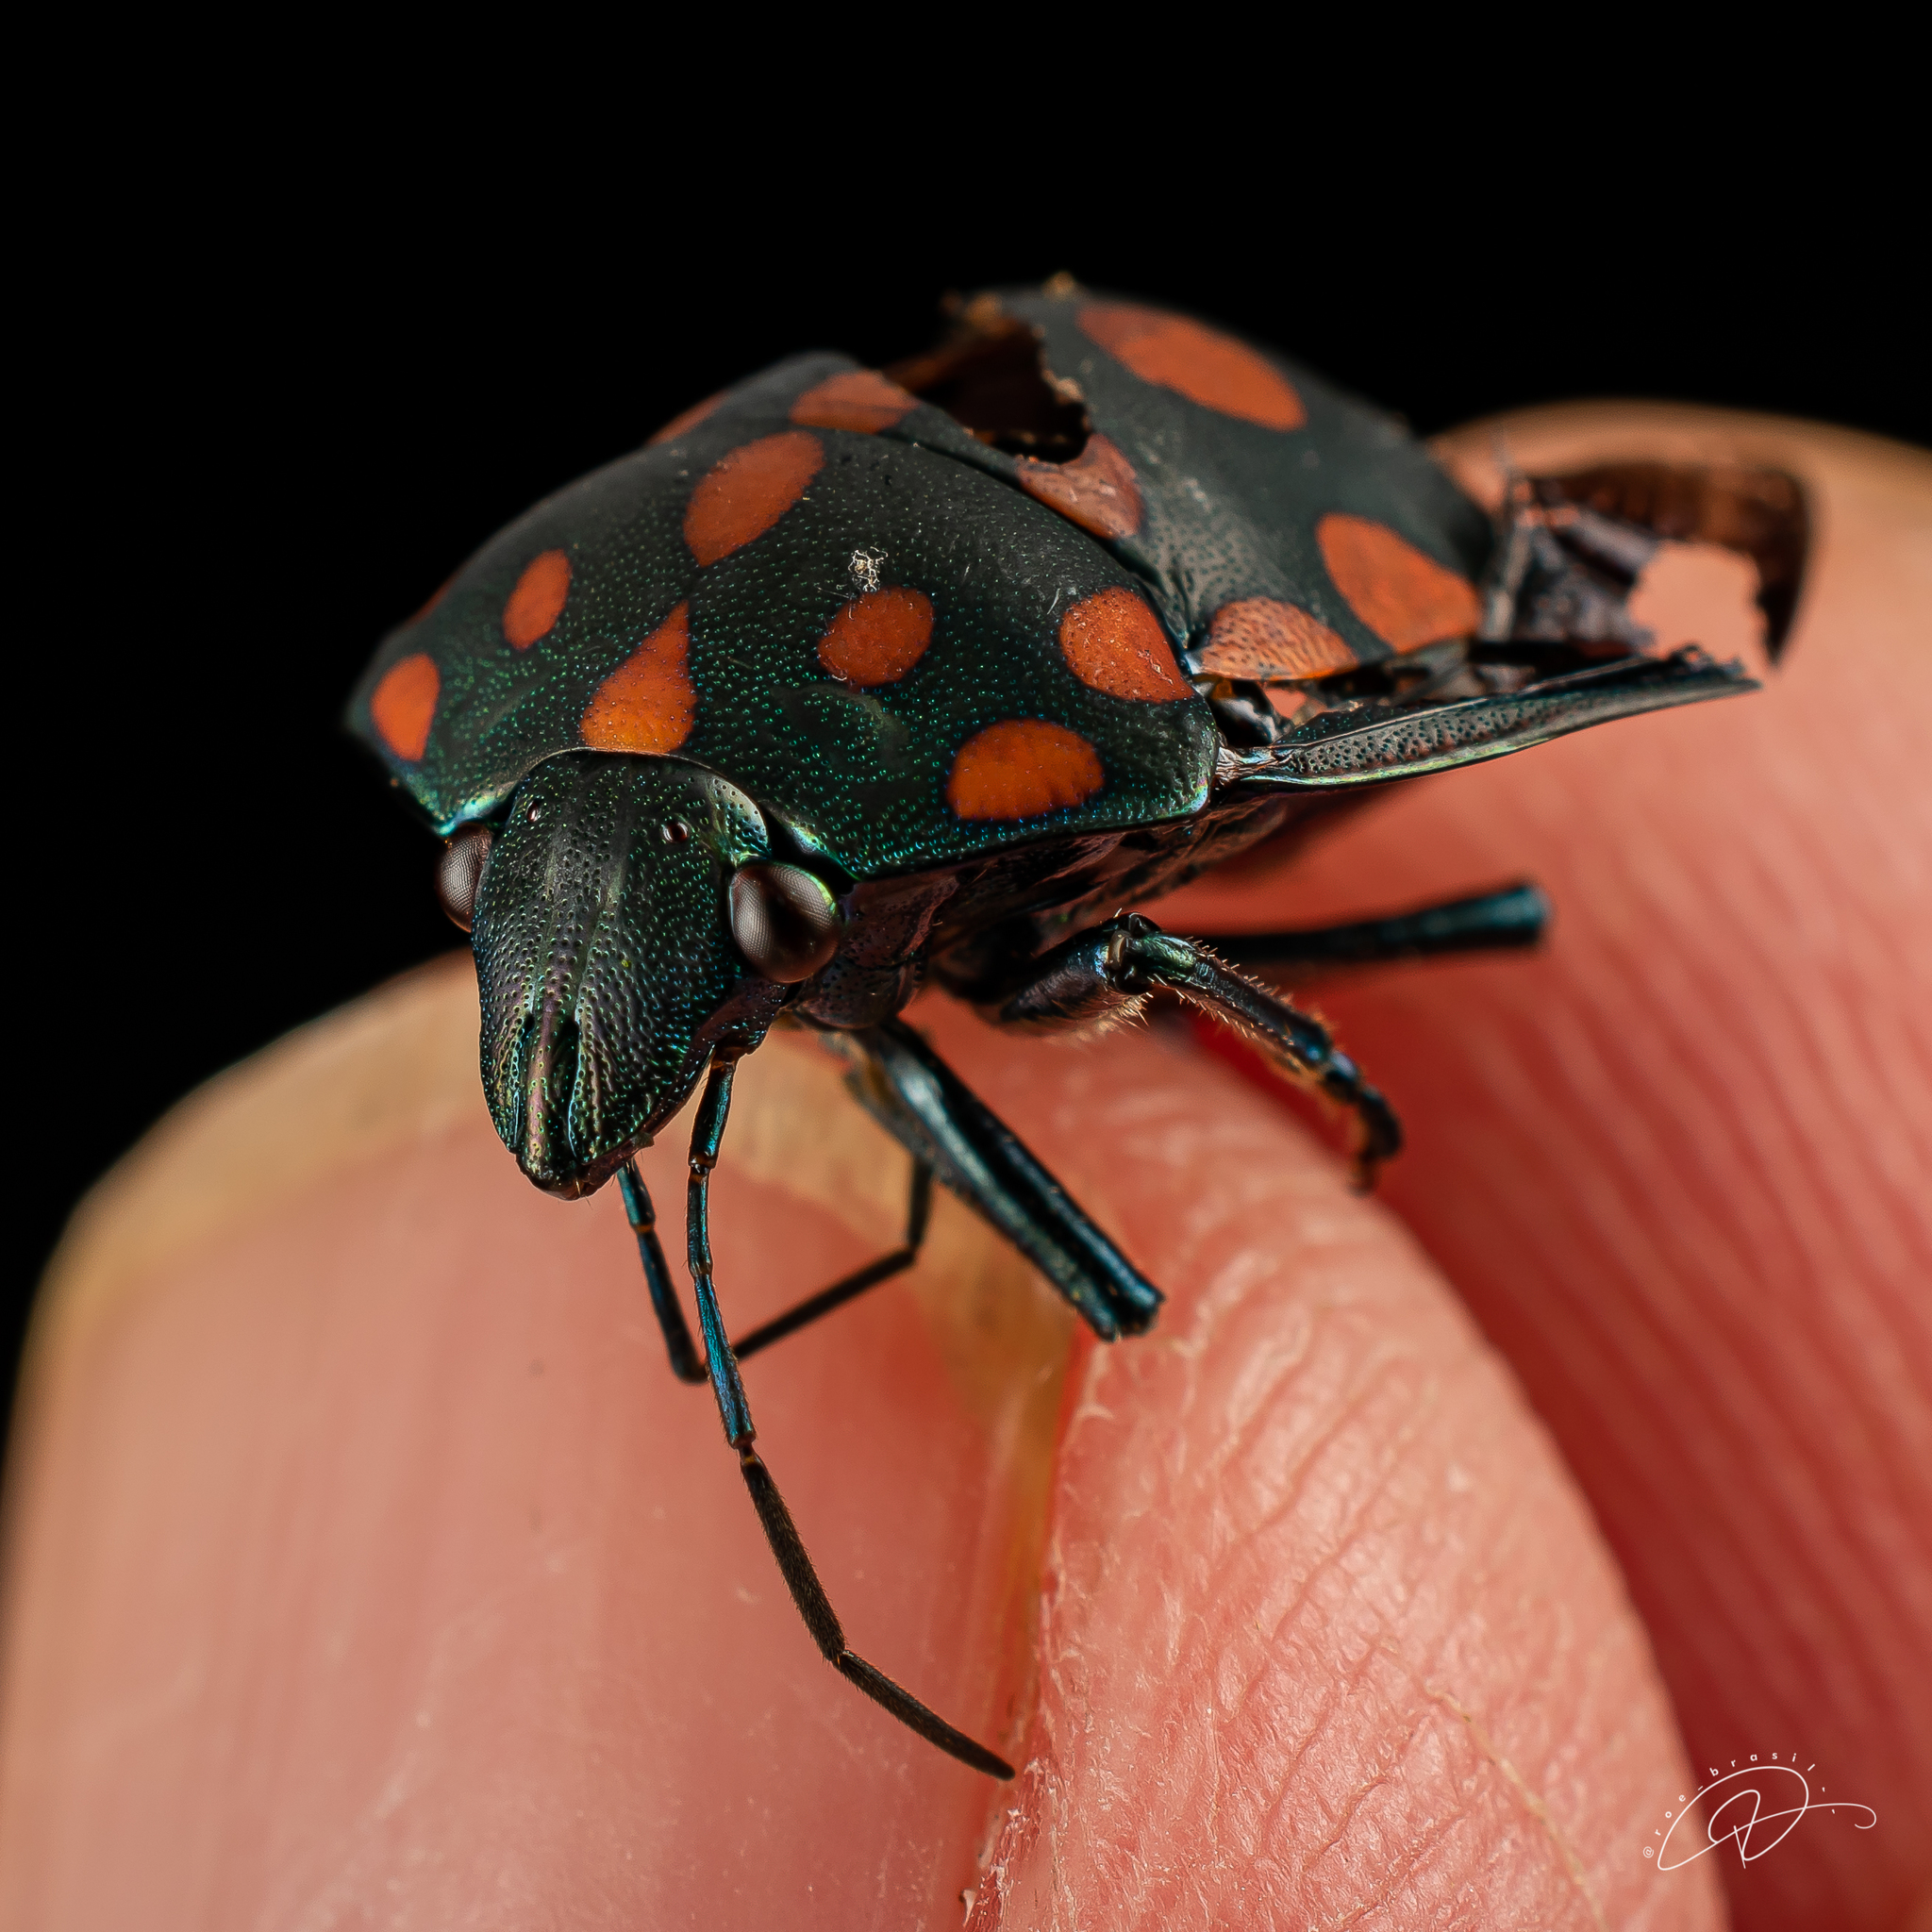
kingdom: Animalia
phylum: Arthropoda
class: Insecta
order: Hemiptera
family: Scutelleridae
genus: Pachycoris
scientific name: Pachycoris torridus
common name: Torrid jewel bug
